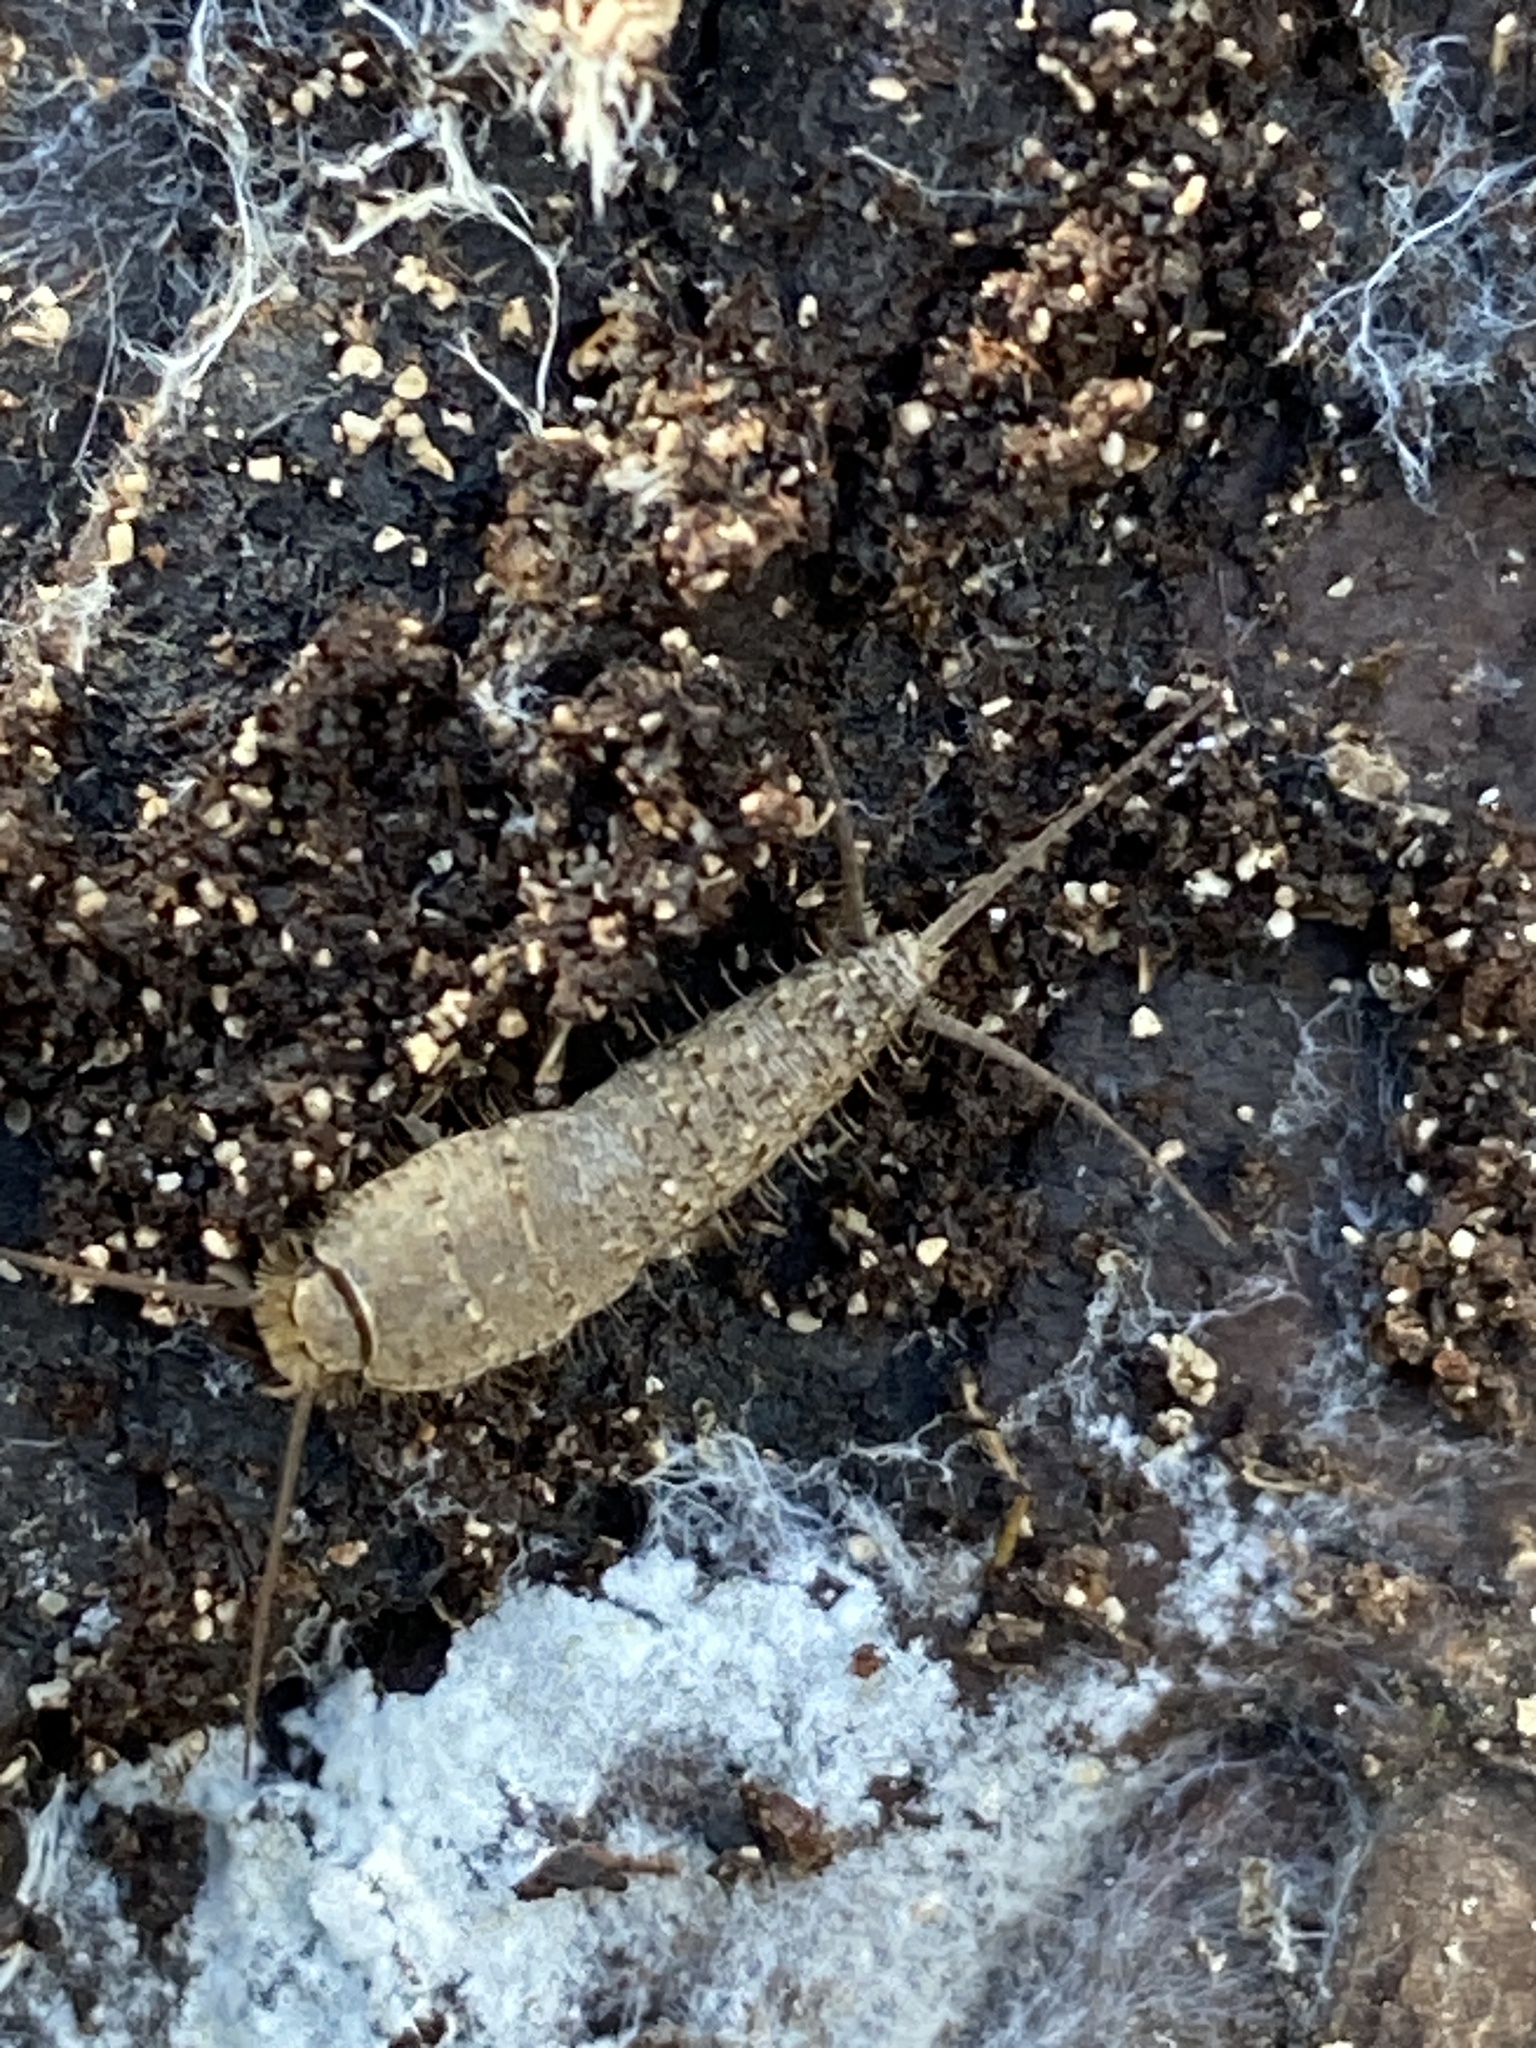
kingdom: Animalia
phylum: Arthropoda
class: Insecta
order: Zygentoma
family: Lepismatidae
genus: Ctenolepisma
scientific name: Ctenolepisma ciliata
